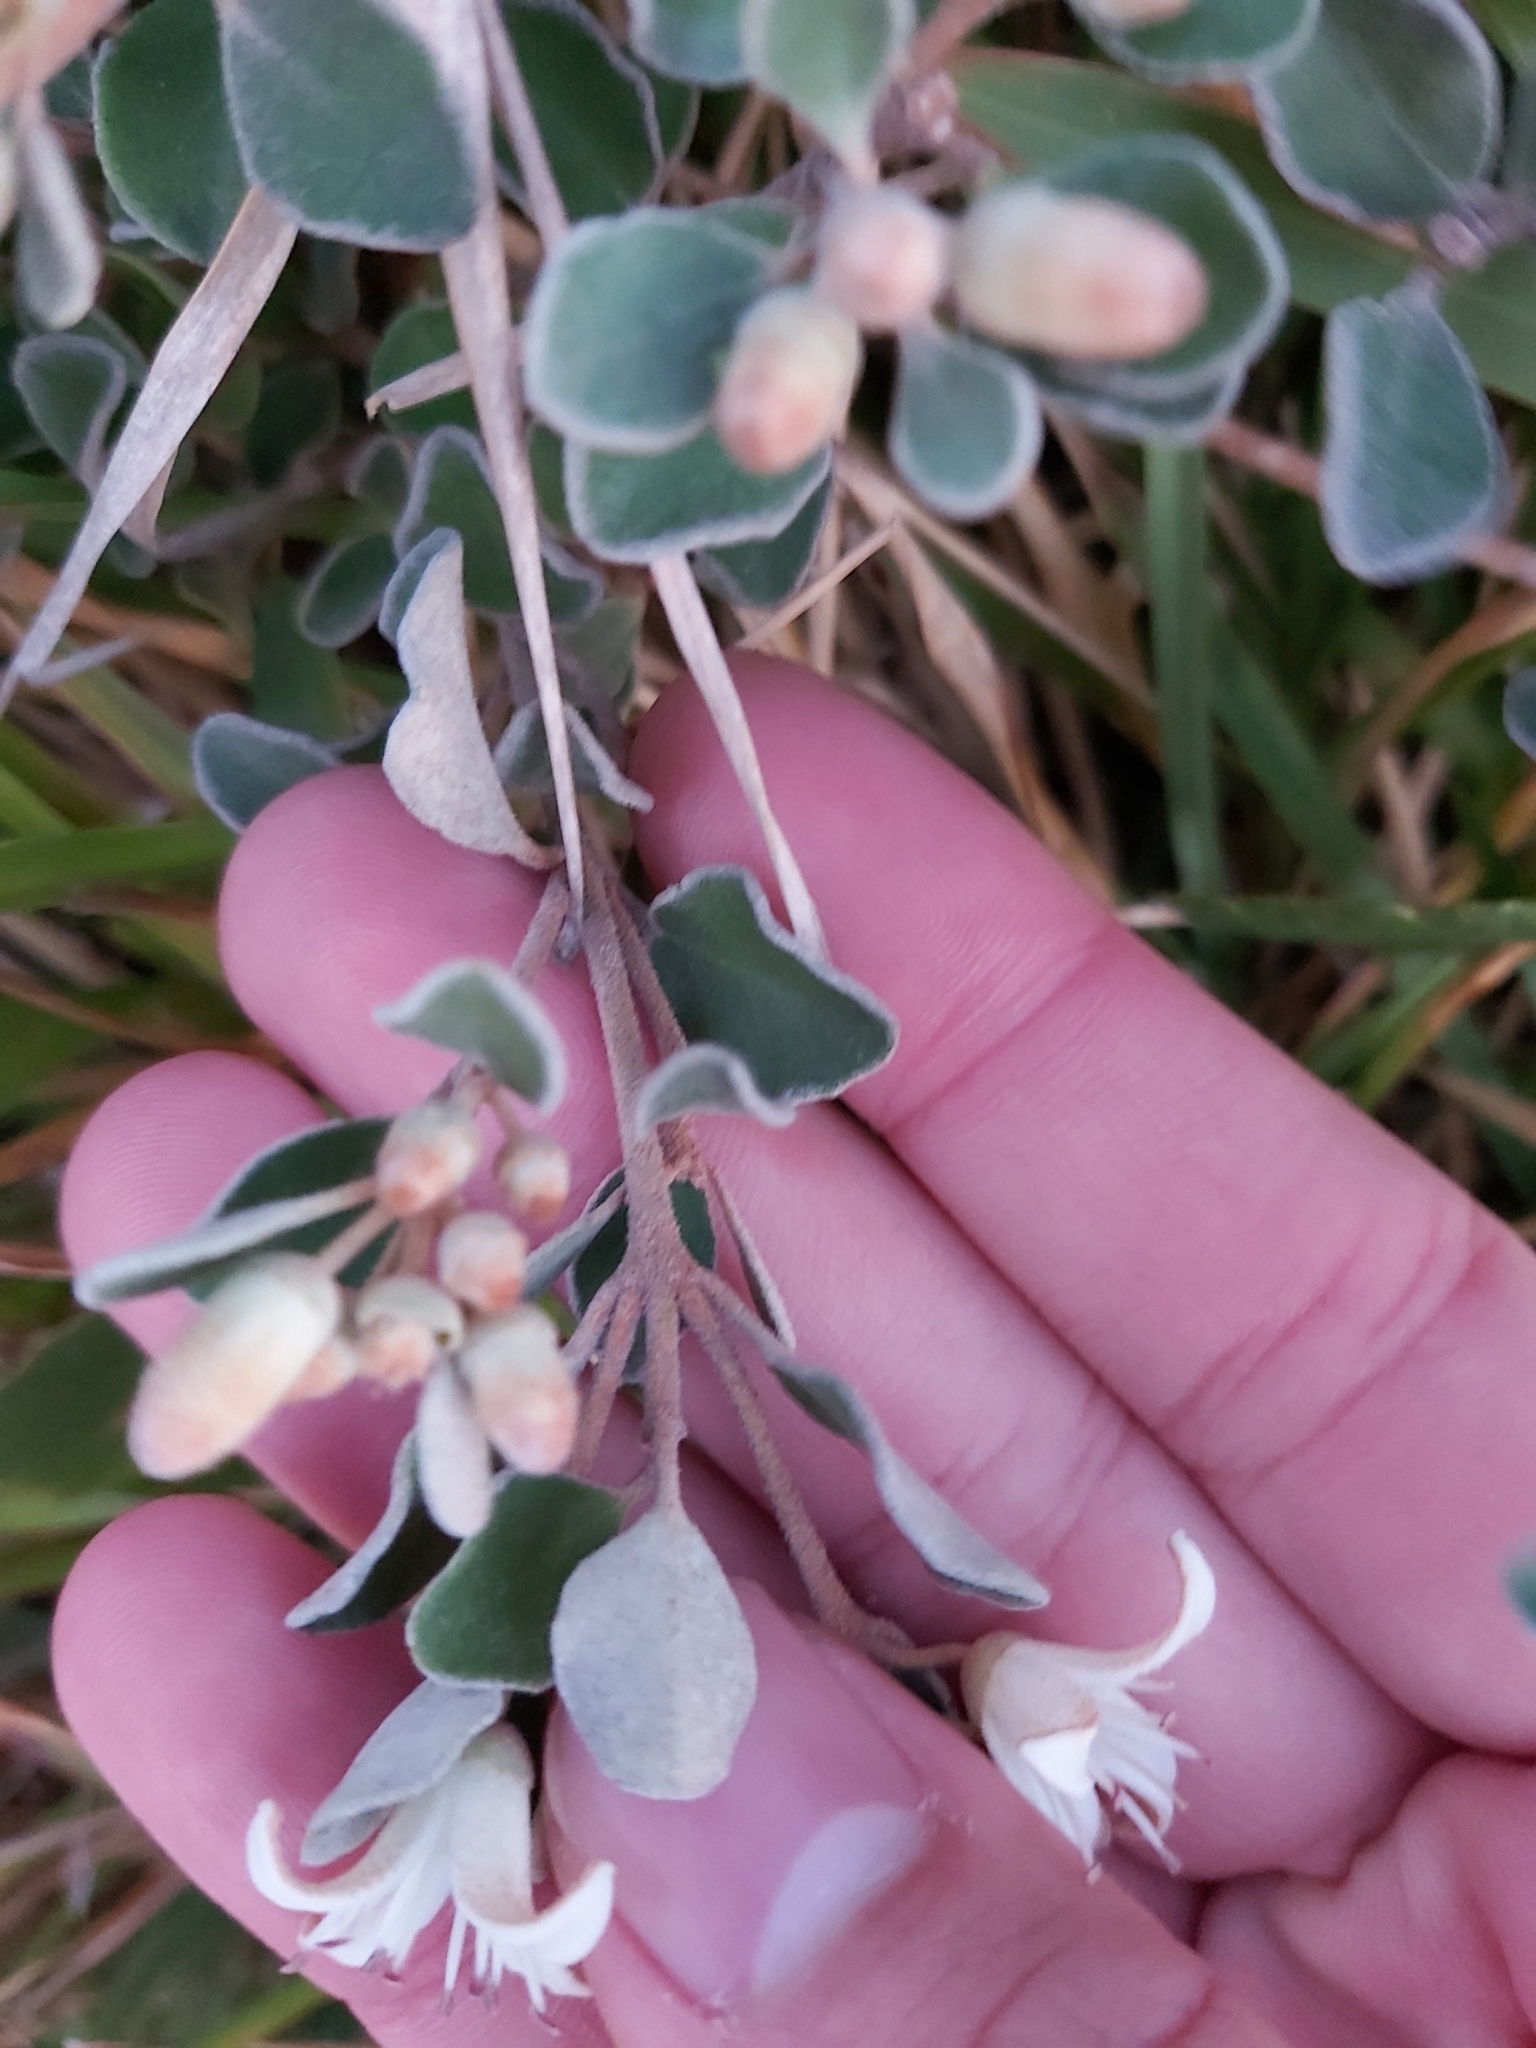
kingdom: Plantae
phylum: Tracheophyta
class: Magnoliopsida
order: Sapindales
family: Rutaceae
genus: Correa
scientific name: Correa alba
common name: White correa
